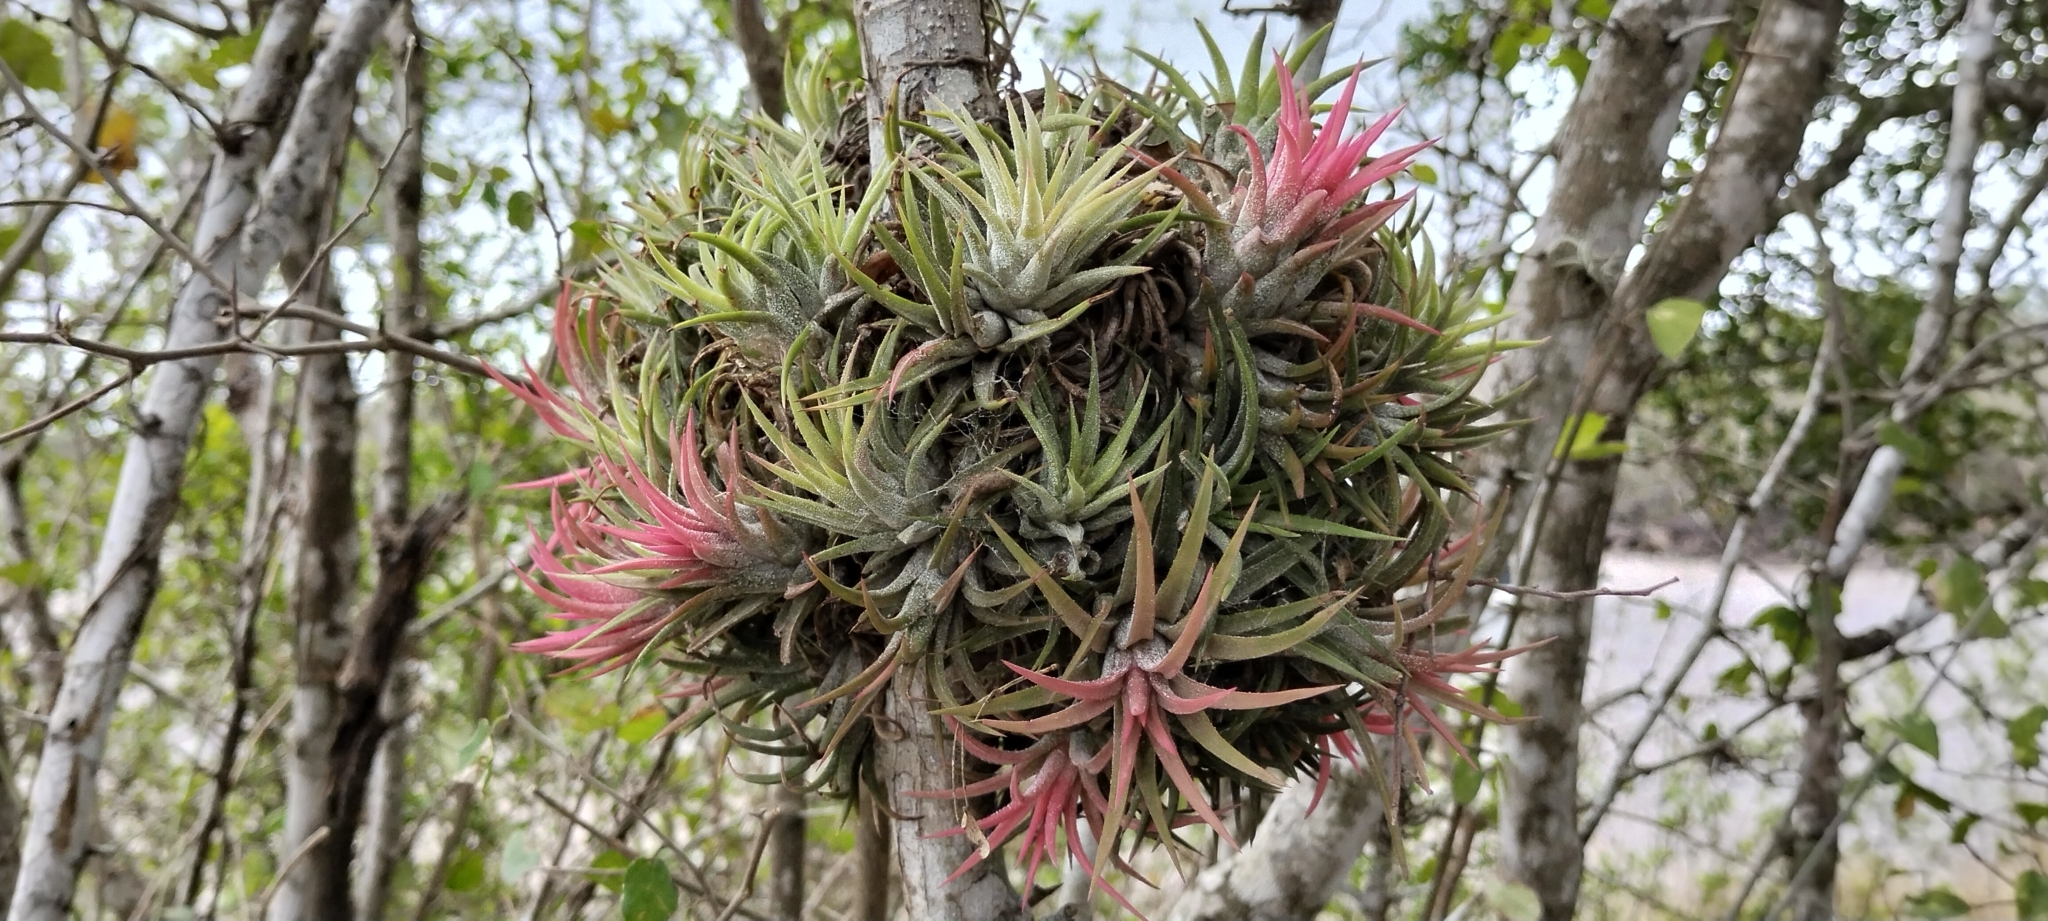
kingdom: Plantae
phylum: Tracheophyta
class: Liliopsida
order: Poales
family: Bromeliaceae
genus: Tillandsia
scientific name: Tillandsia ionantha
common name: Sky plant
